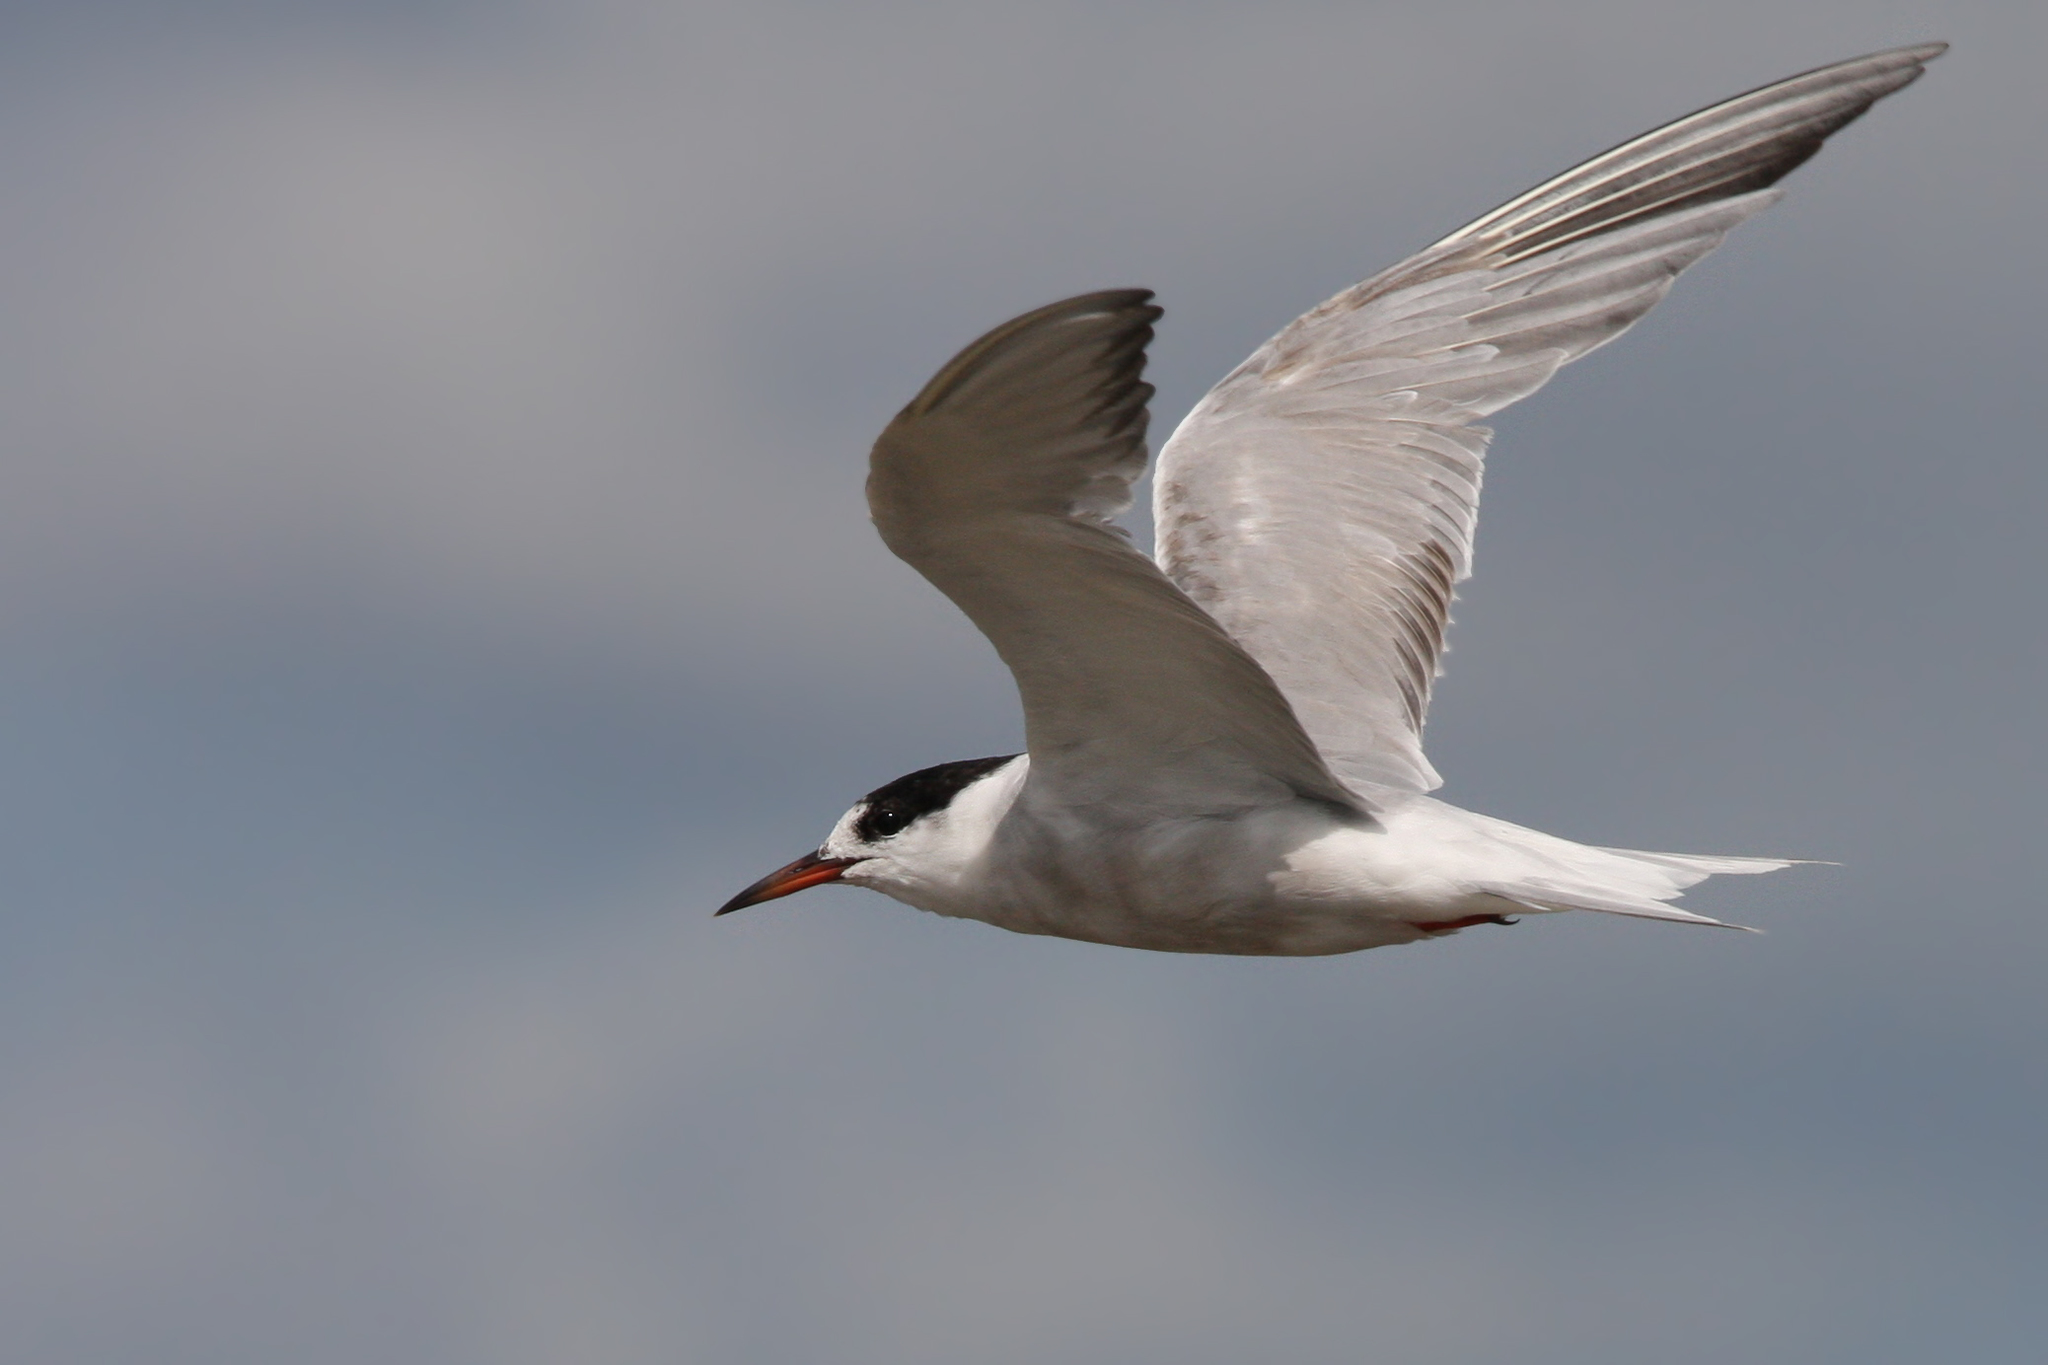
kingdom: Animalia
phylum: Chordata
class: Aves
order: Charadriiformes
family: Laridae
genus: Sterna
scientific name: Sterna hirundo
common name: Common tern
